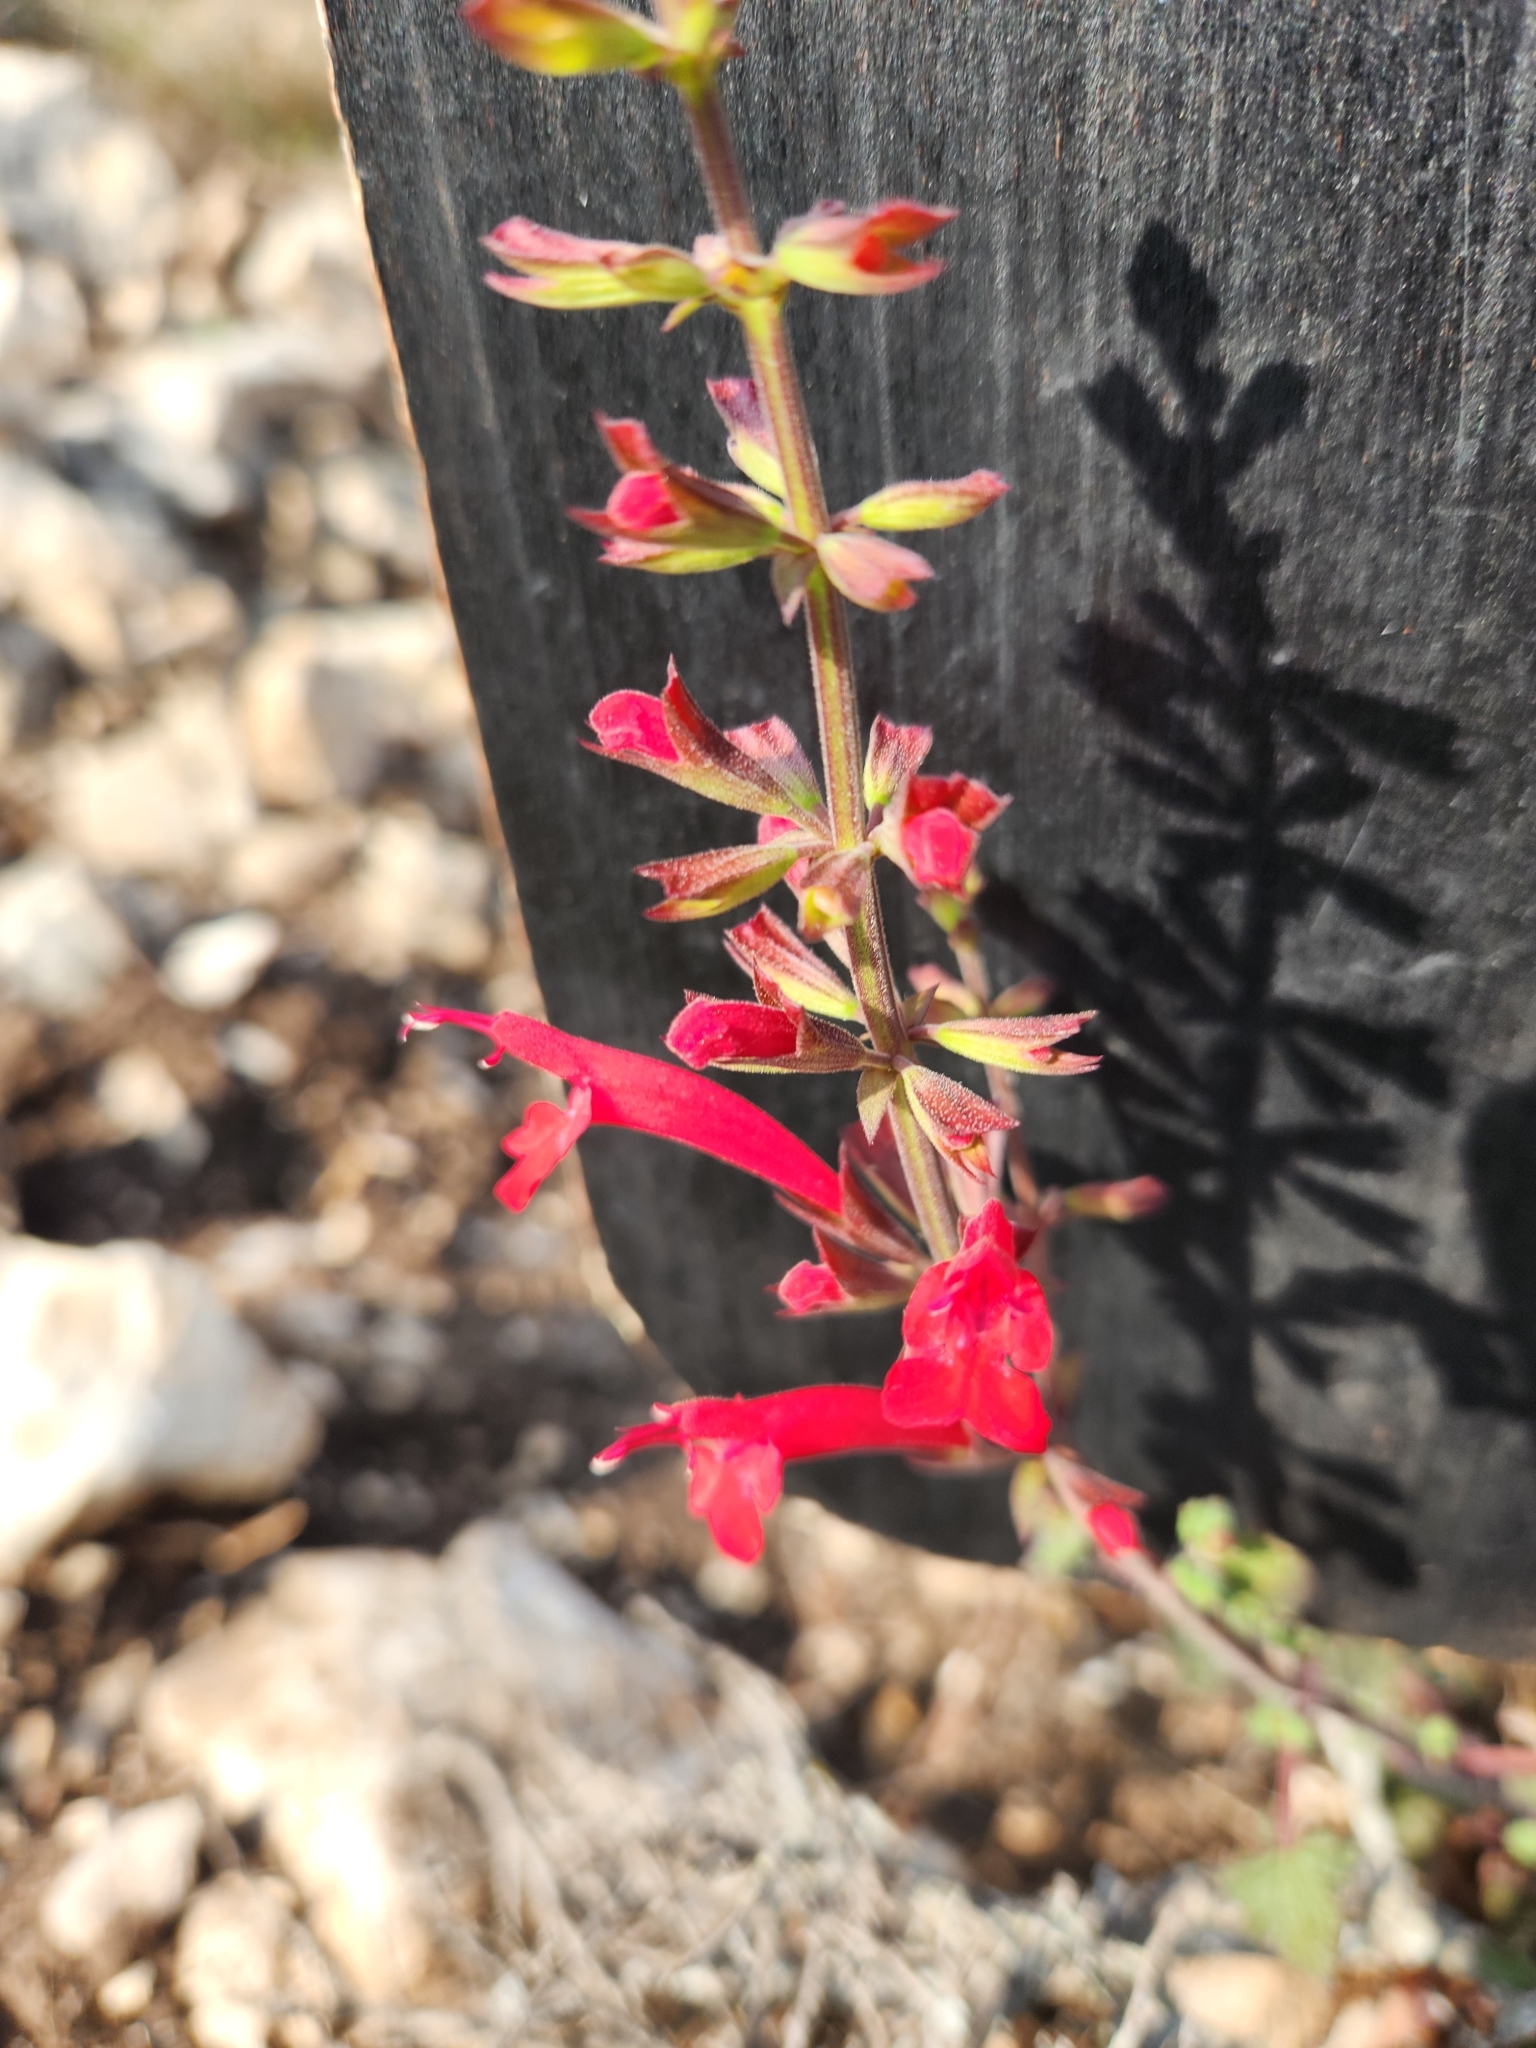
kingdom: Plantae
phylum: Tracheophyta
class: Magnoliopsida
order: Lamiales
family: Lamiaceae
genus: Salvia
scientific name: Salvia roemeriana
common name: Cedar sage
